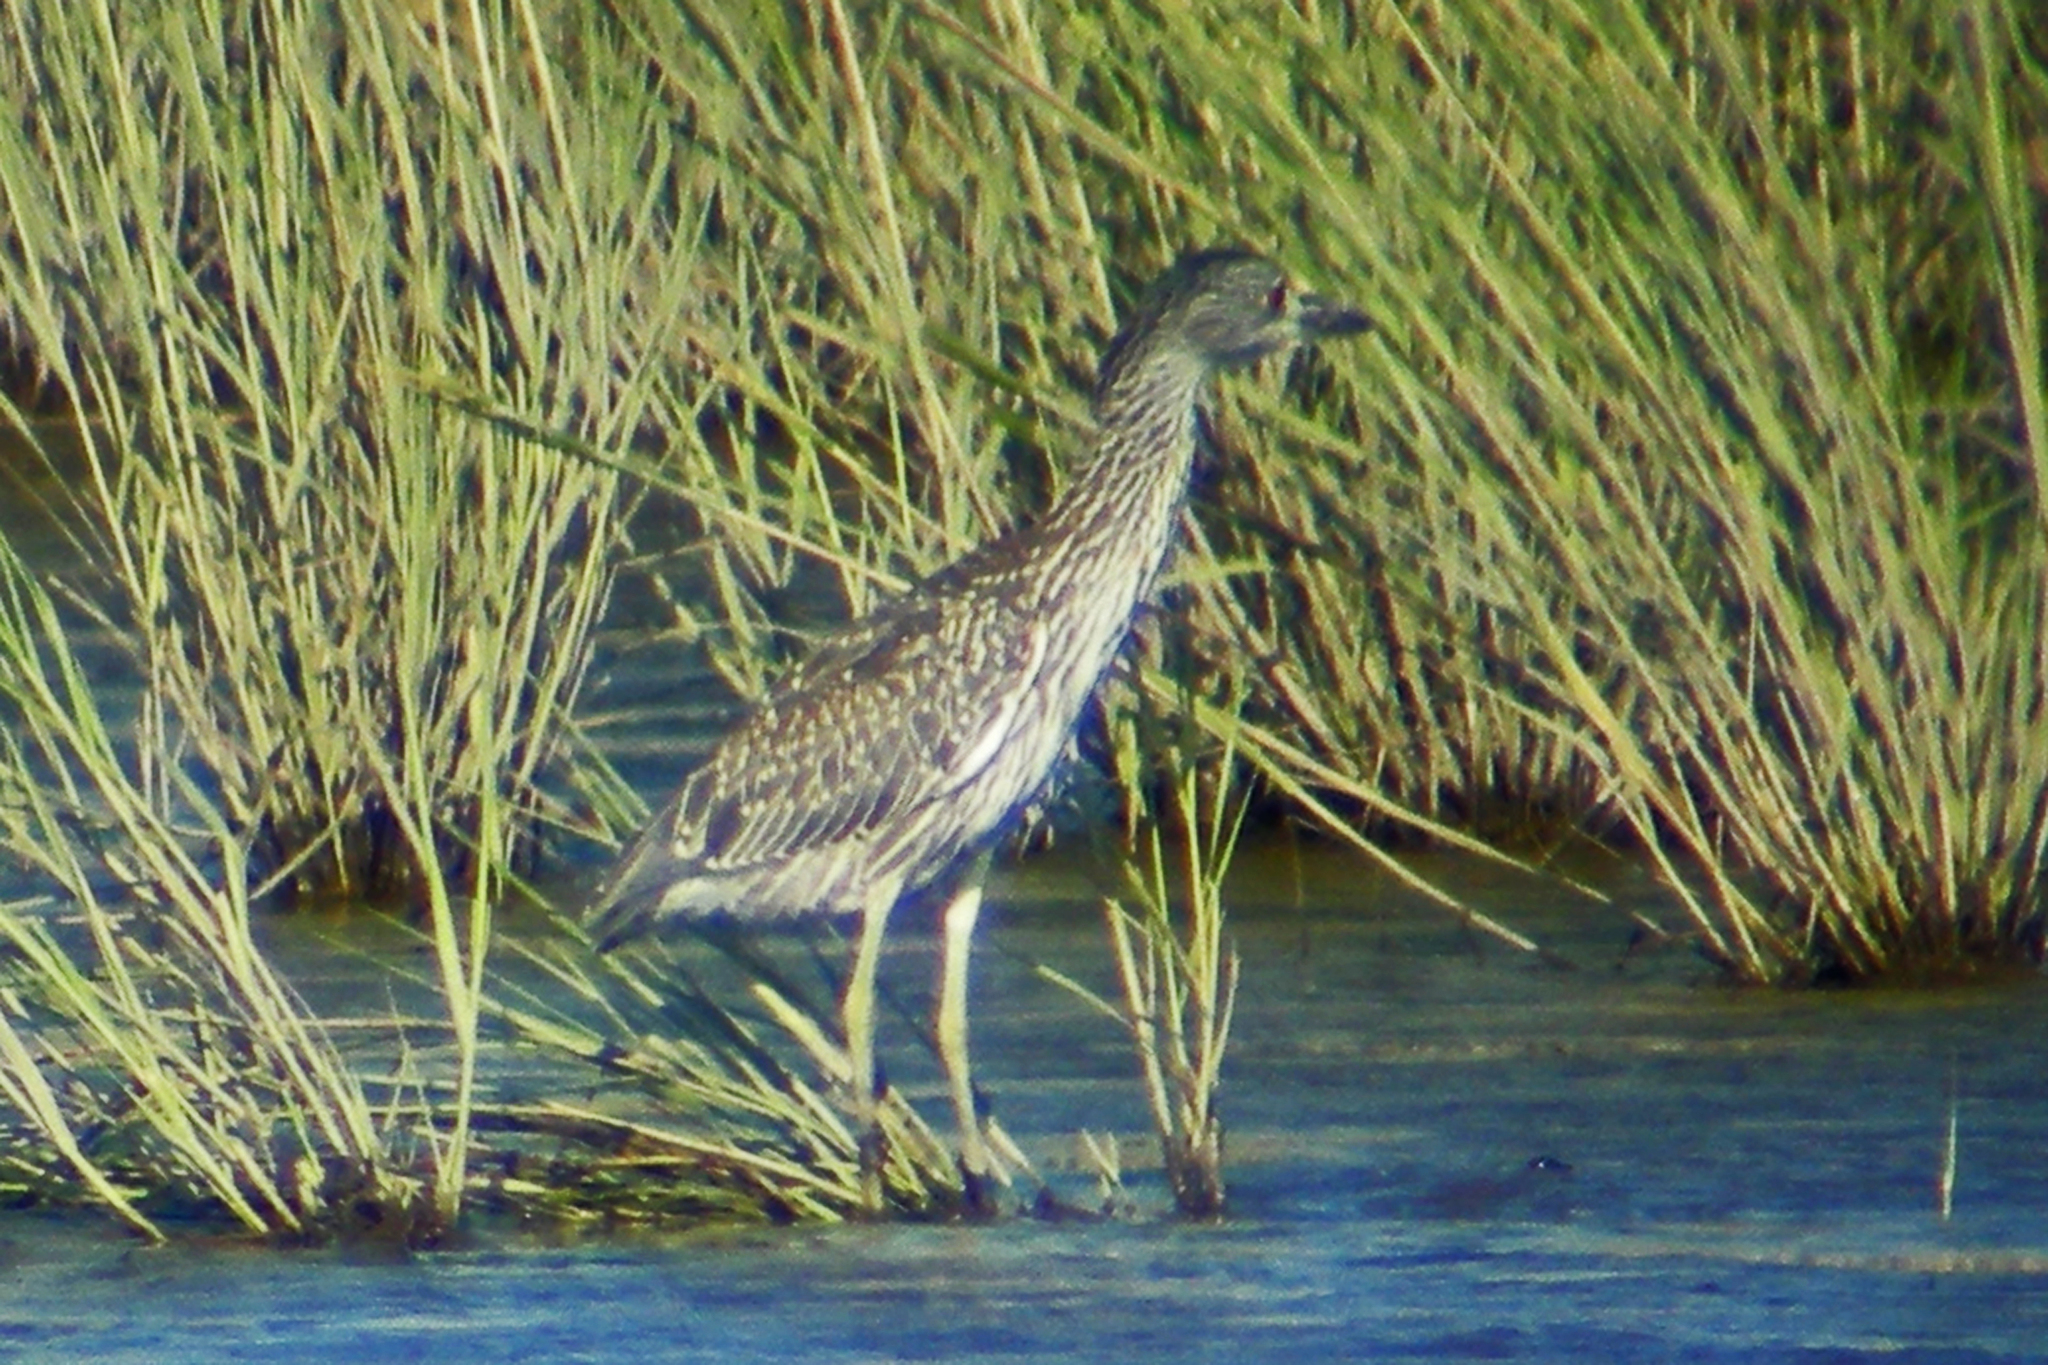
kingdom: Animalia
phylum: Chordata
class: Aves
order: Pelecaniformes
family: Ardeidae
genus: Nyctanassa
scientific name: Nyctanassa violacea
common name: Yellow-crowned night heron
